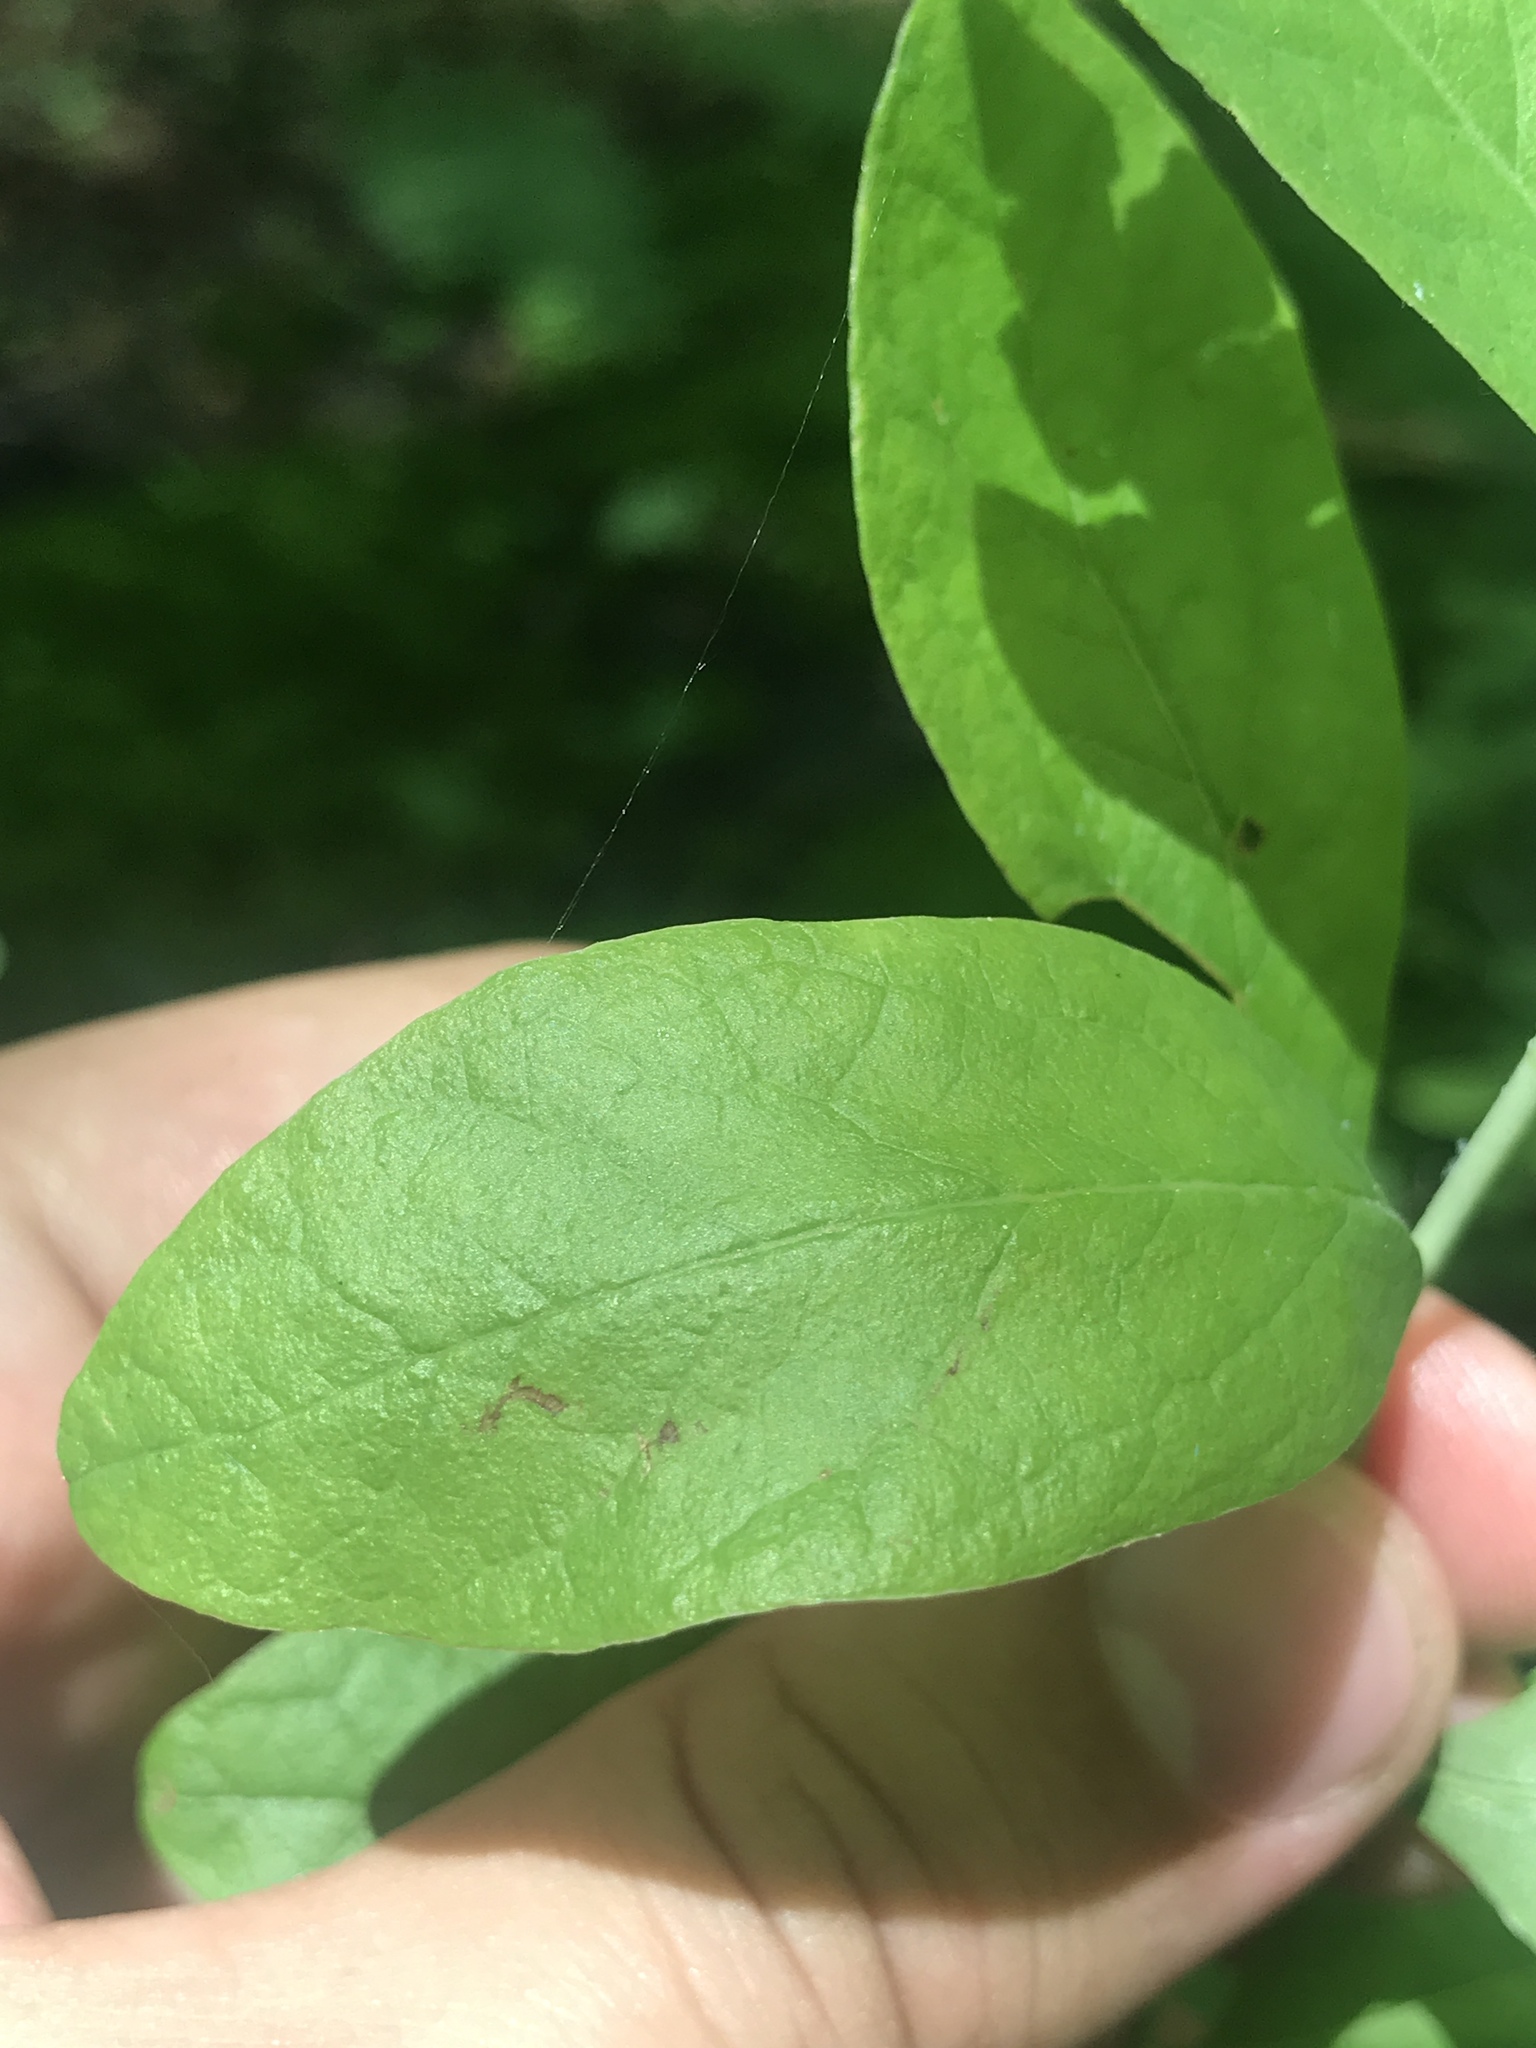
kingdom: Plantae
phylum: Tracheophyta
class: Magnoliopsida
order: Ericales
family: Ericaceae
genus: Gaylussacia
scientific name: Gaylussacia frondosa
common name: Dangleberry
